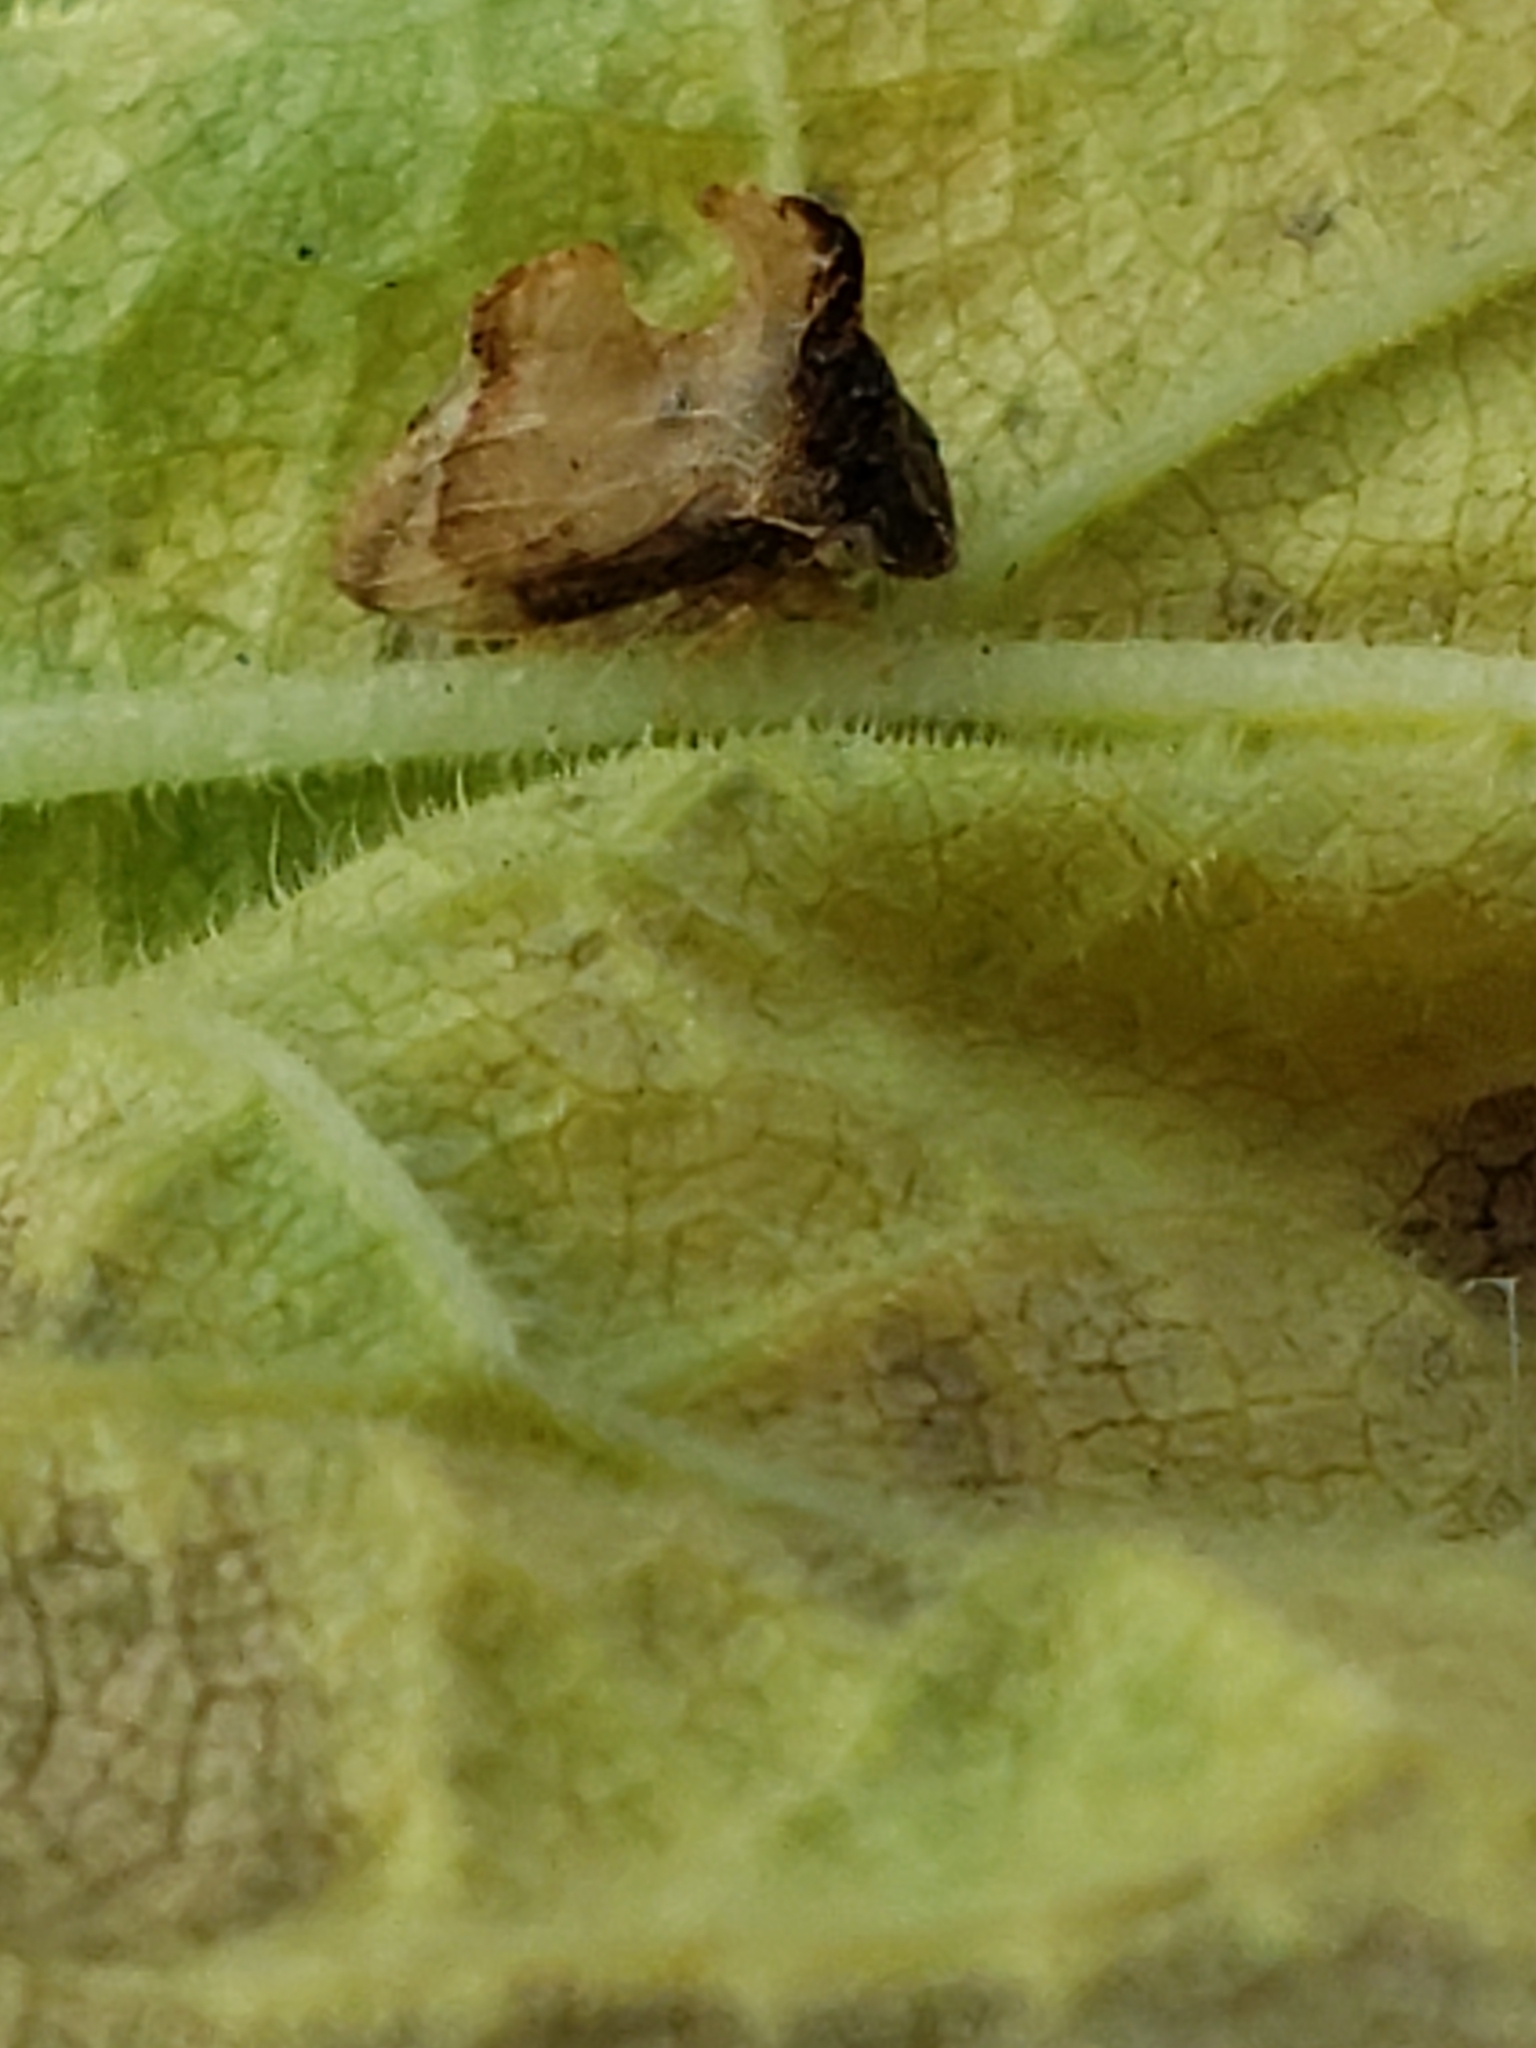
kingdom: Animalia
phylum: Arthropoda
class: Insecta
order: Hemiptera
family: Membracidae
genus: Entylia
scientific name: Entylia carinata
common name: Keeled treehopper
